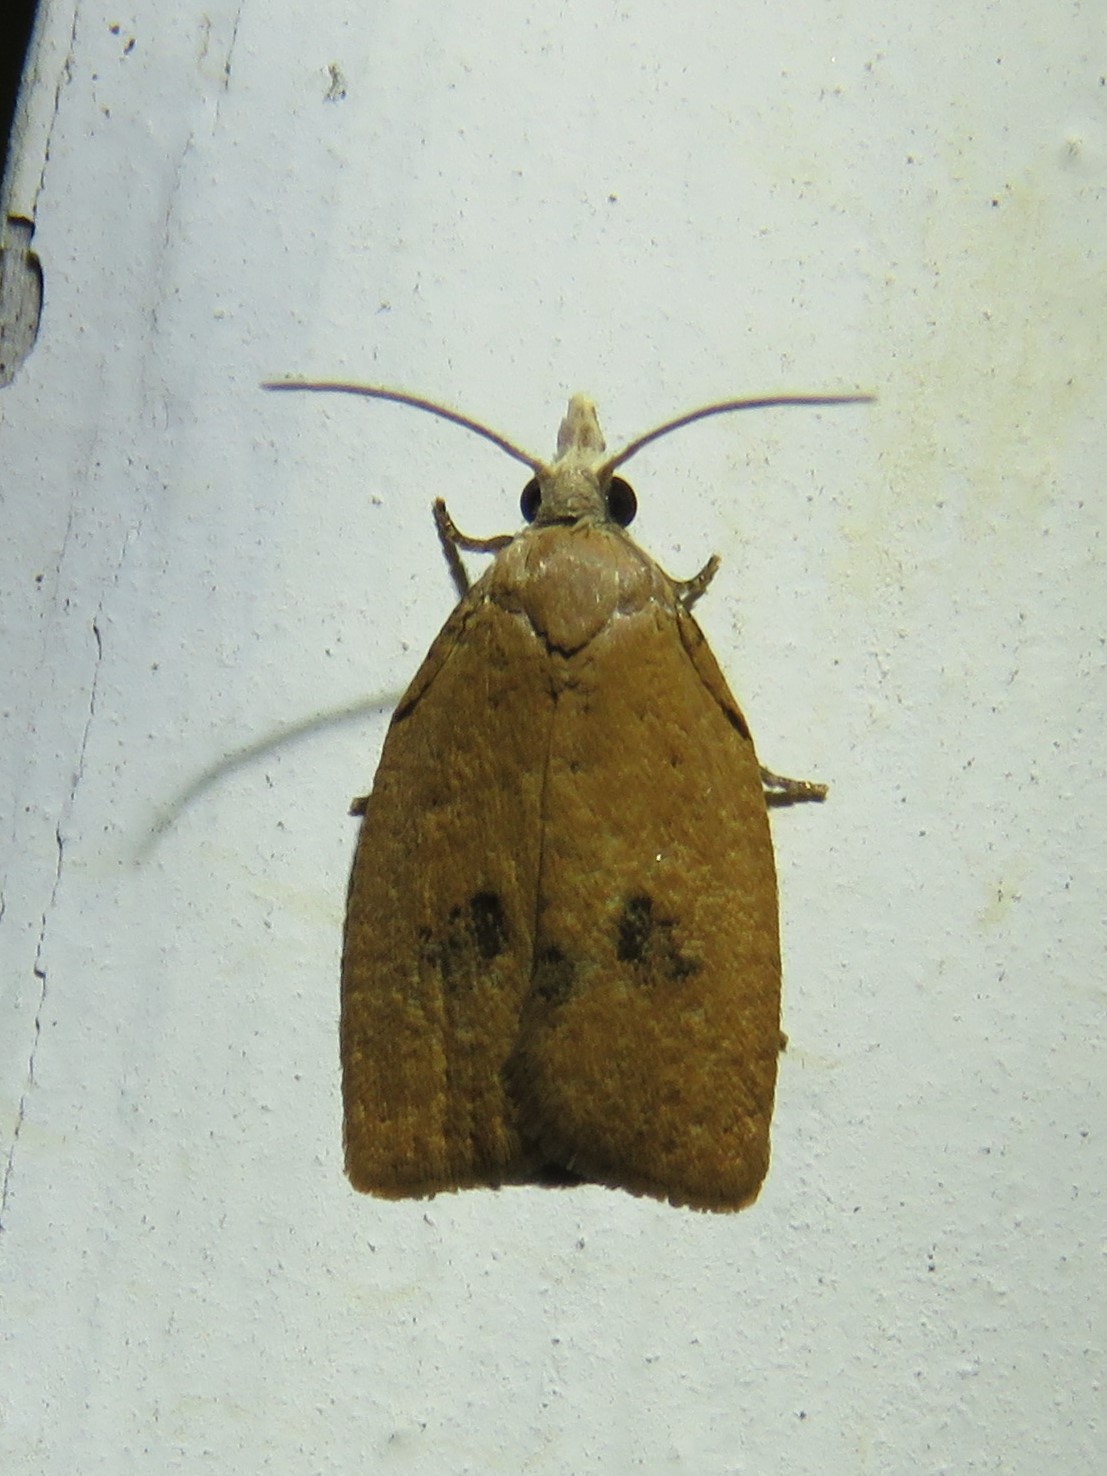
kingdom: Animalia
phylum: Arthropoda
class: Insecta
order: Lepidoptera
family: Tortricidae
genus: Sparganothoides
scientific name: Sparganothoides lentiginosana
